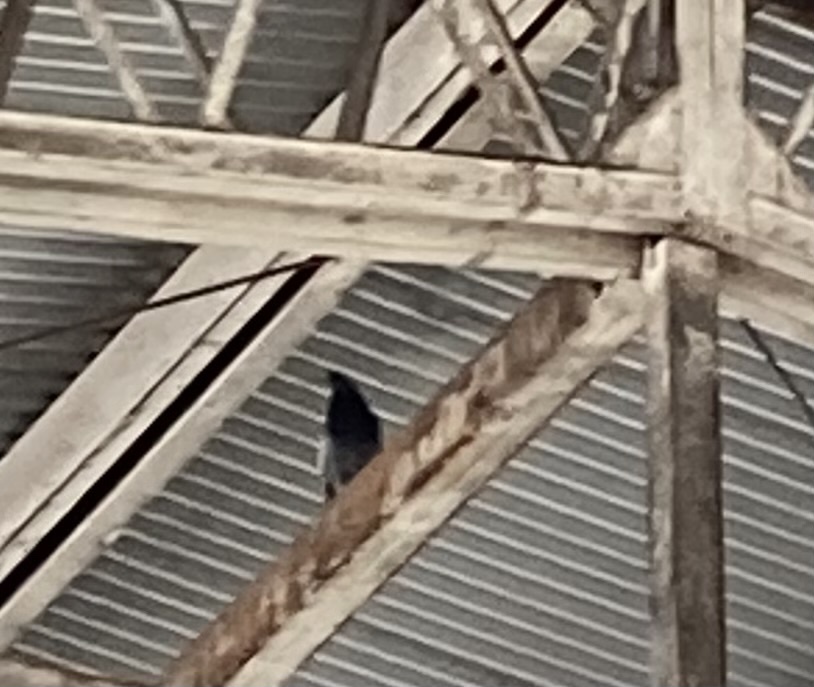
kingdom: Animalia
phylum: Chordata
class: Aves
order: Columbiformes
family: Columbidae
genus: Columba
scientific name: Columba livia
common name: Rock pigeon
